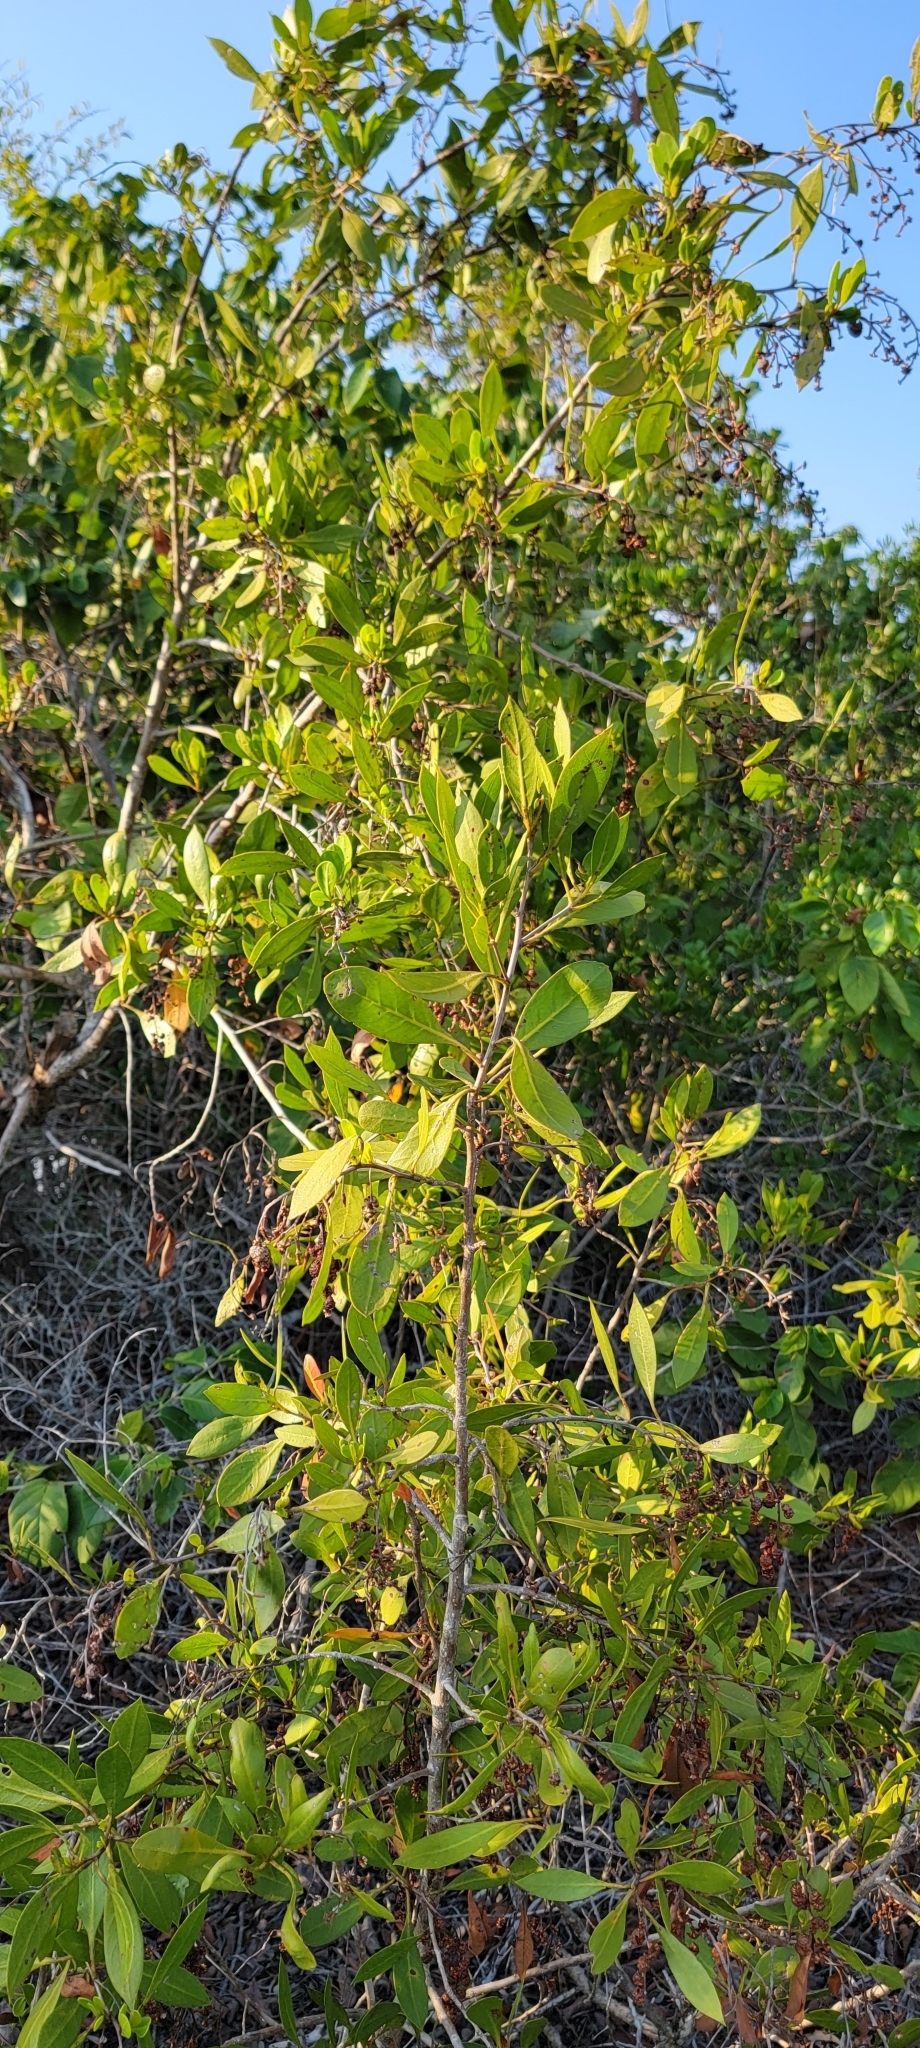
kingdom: Plantae
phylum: Tracheophyta
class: Magnoliopsida
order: Myrtales
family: Combretaceae
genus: Conocarpus
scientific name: Conocarpus erectus
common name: Button mangrove
